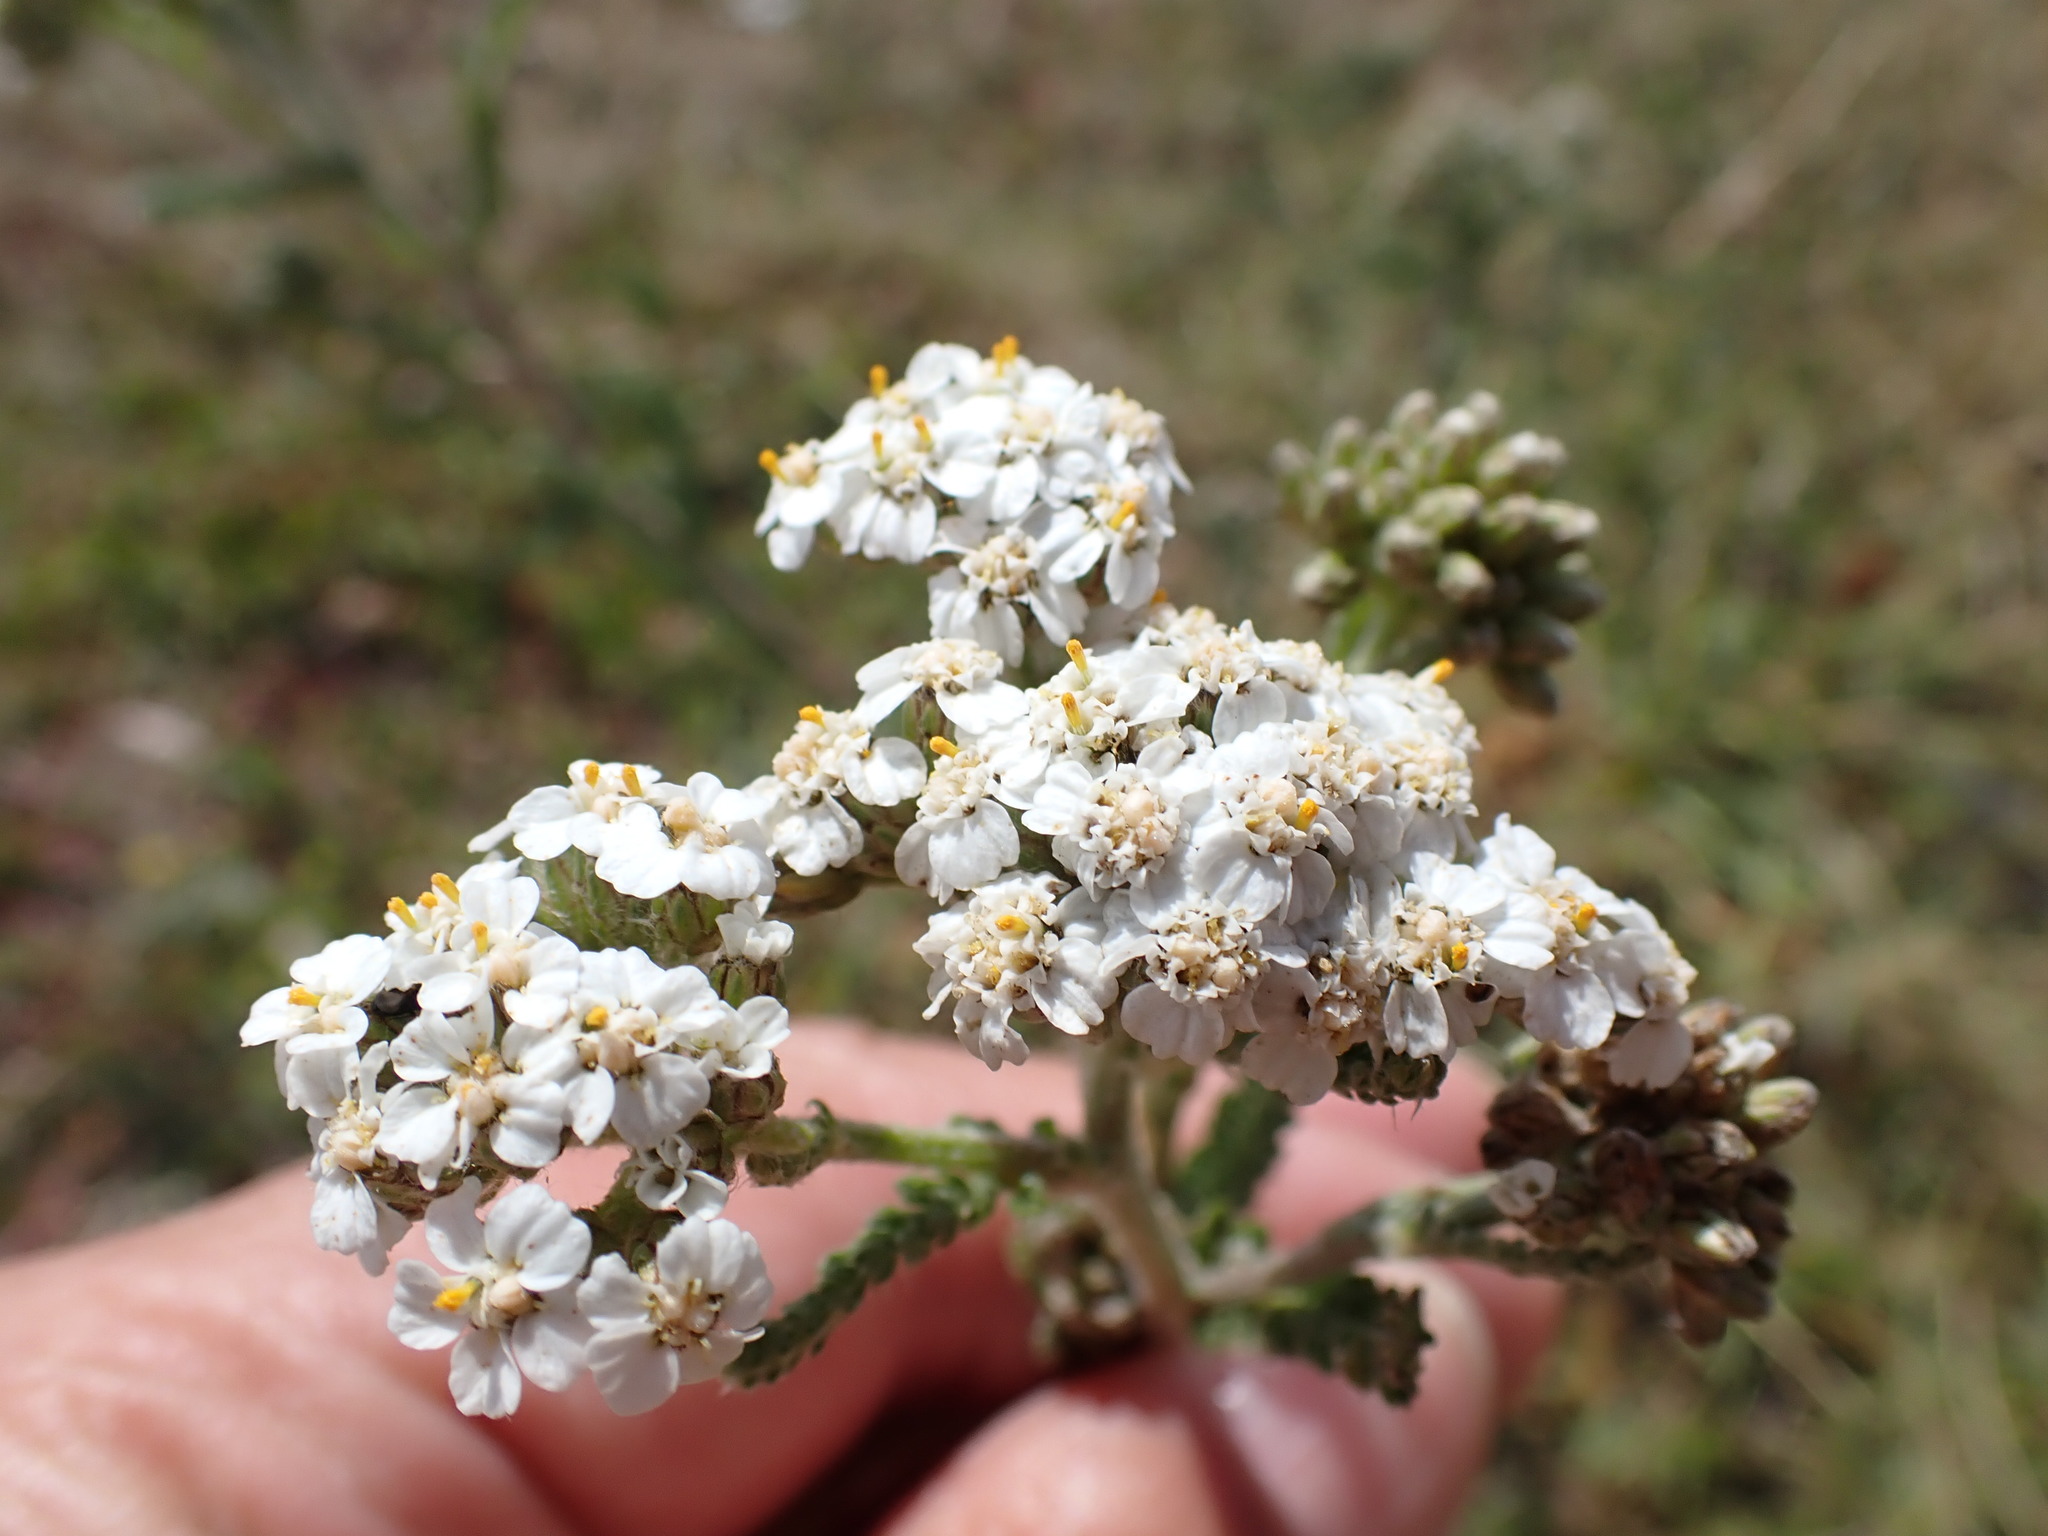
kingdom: Plantae
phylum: Tracheophyta
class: Magnoliopsida
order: Asterales
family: Asteraceae
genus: Achillea
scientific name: Achillea millefolium
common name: Yarrow
